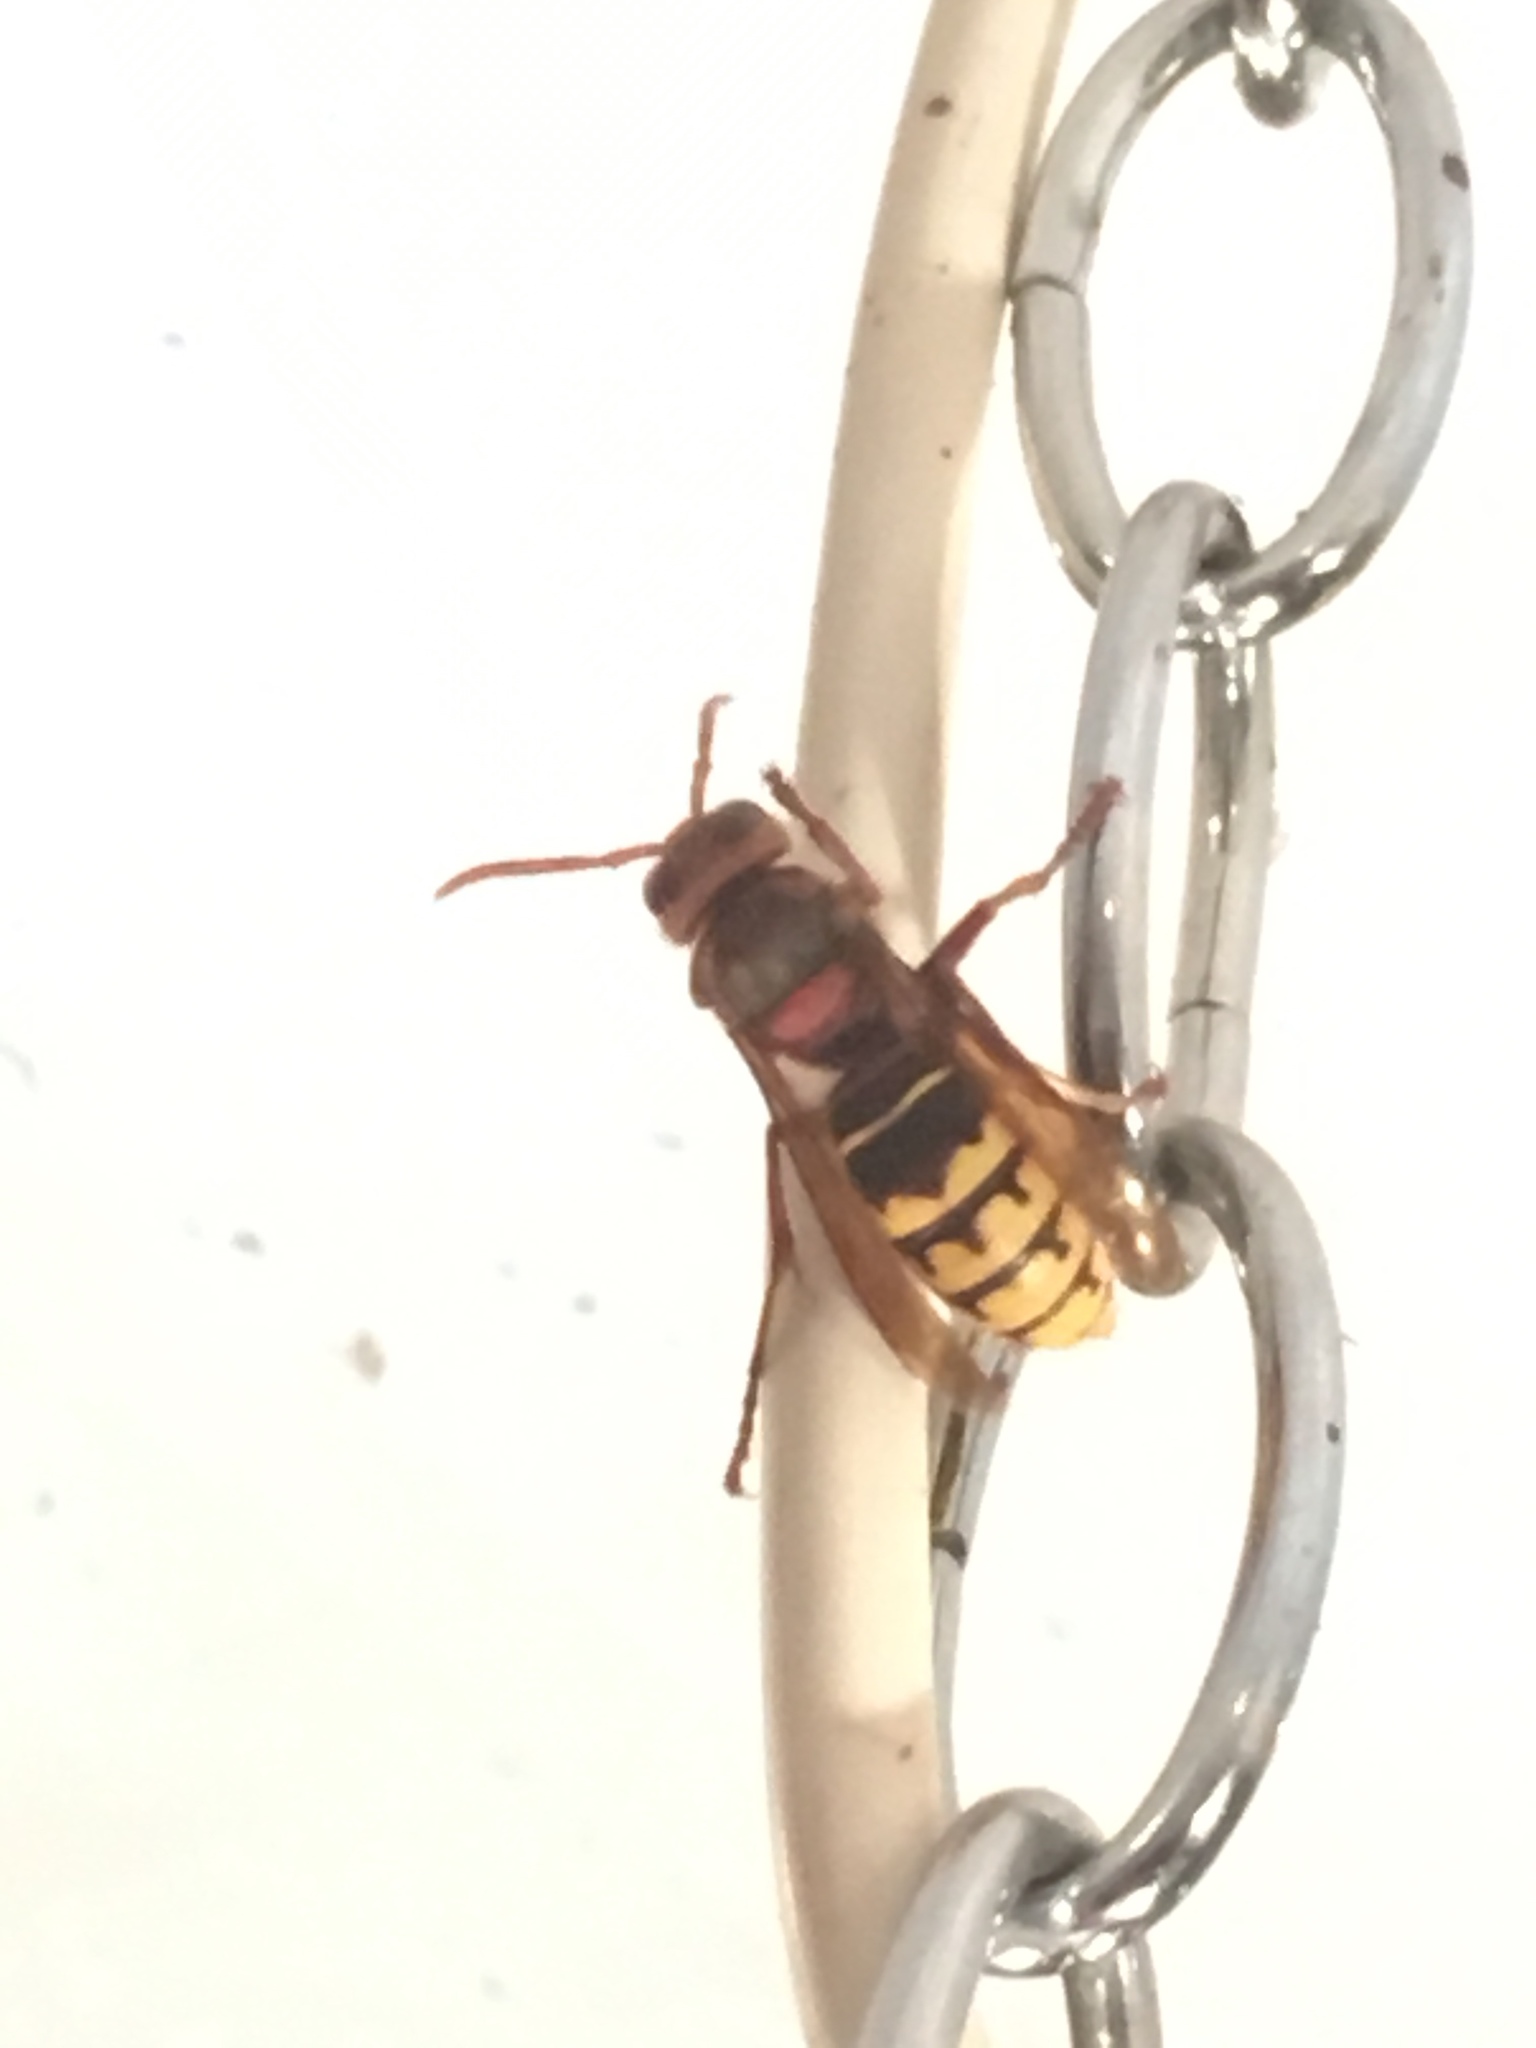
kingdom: Animalia
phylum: Arthropoda
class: Insecta
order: Hymenoptera
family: Vespidae
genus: Vespa
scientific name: Vespa crabro
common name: Hornet
